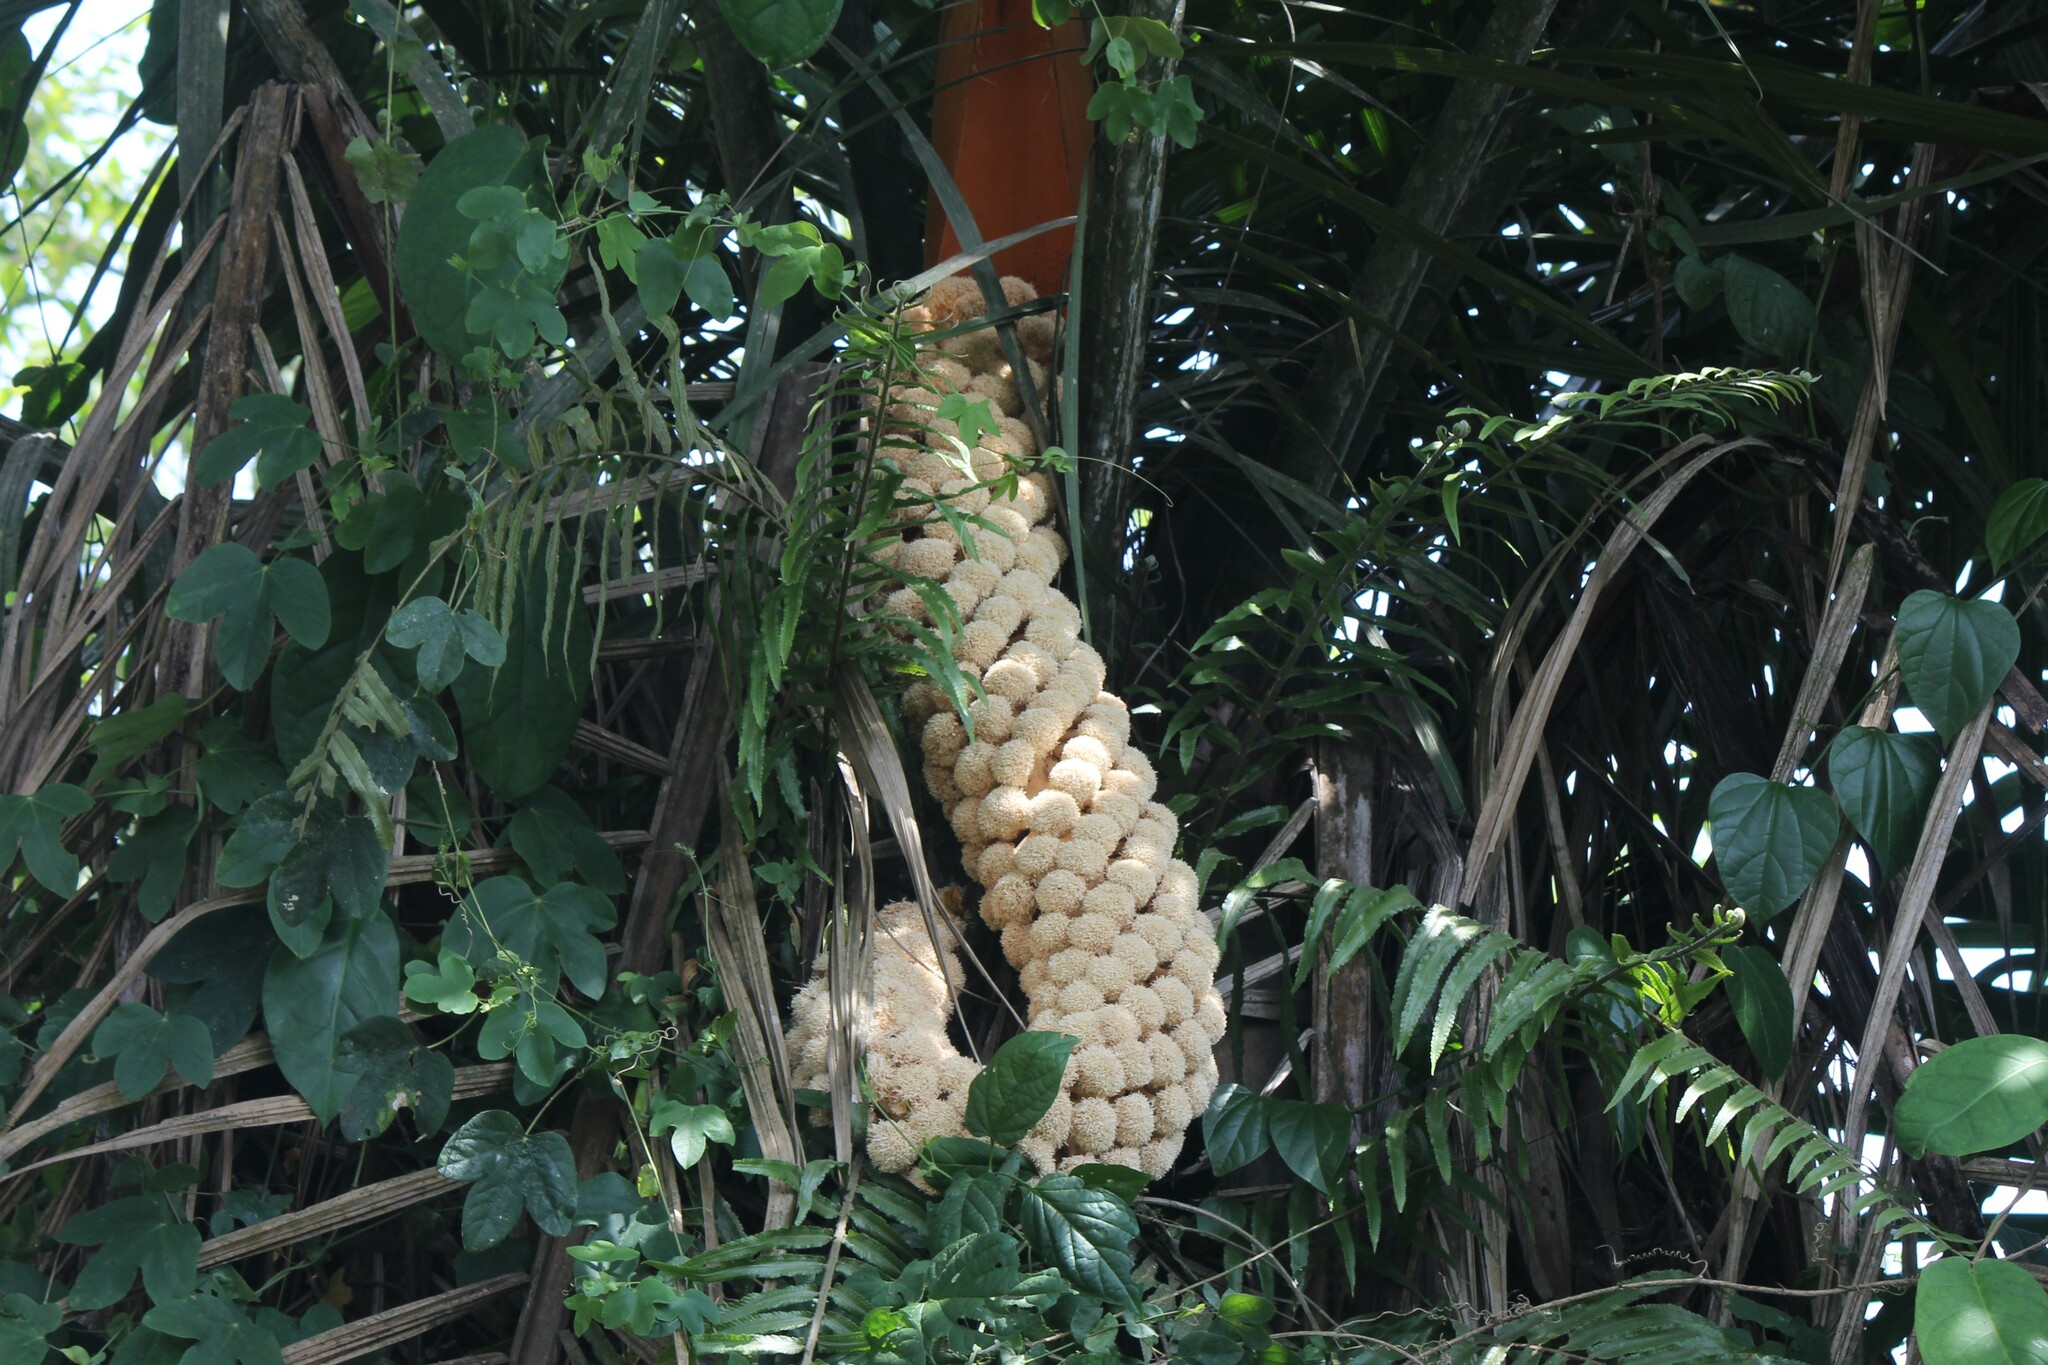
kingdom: Plantae
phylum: Tracheophyta
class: Liliopsida
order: Arecales
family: Arecaceae
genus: Phytelephas
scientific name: Phytelephas aequatorialis
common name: Ivory palm
